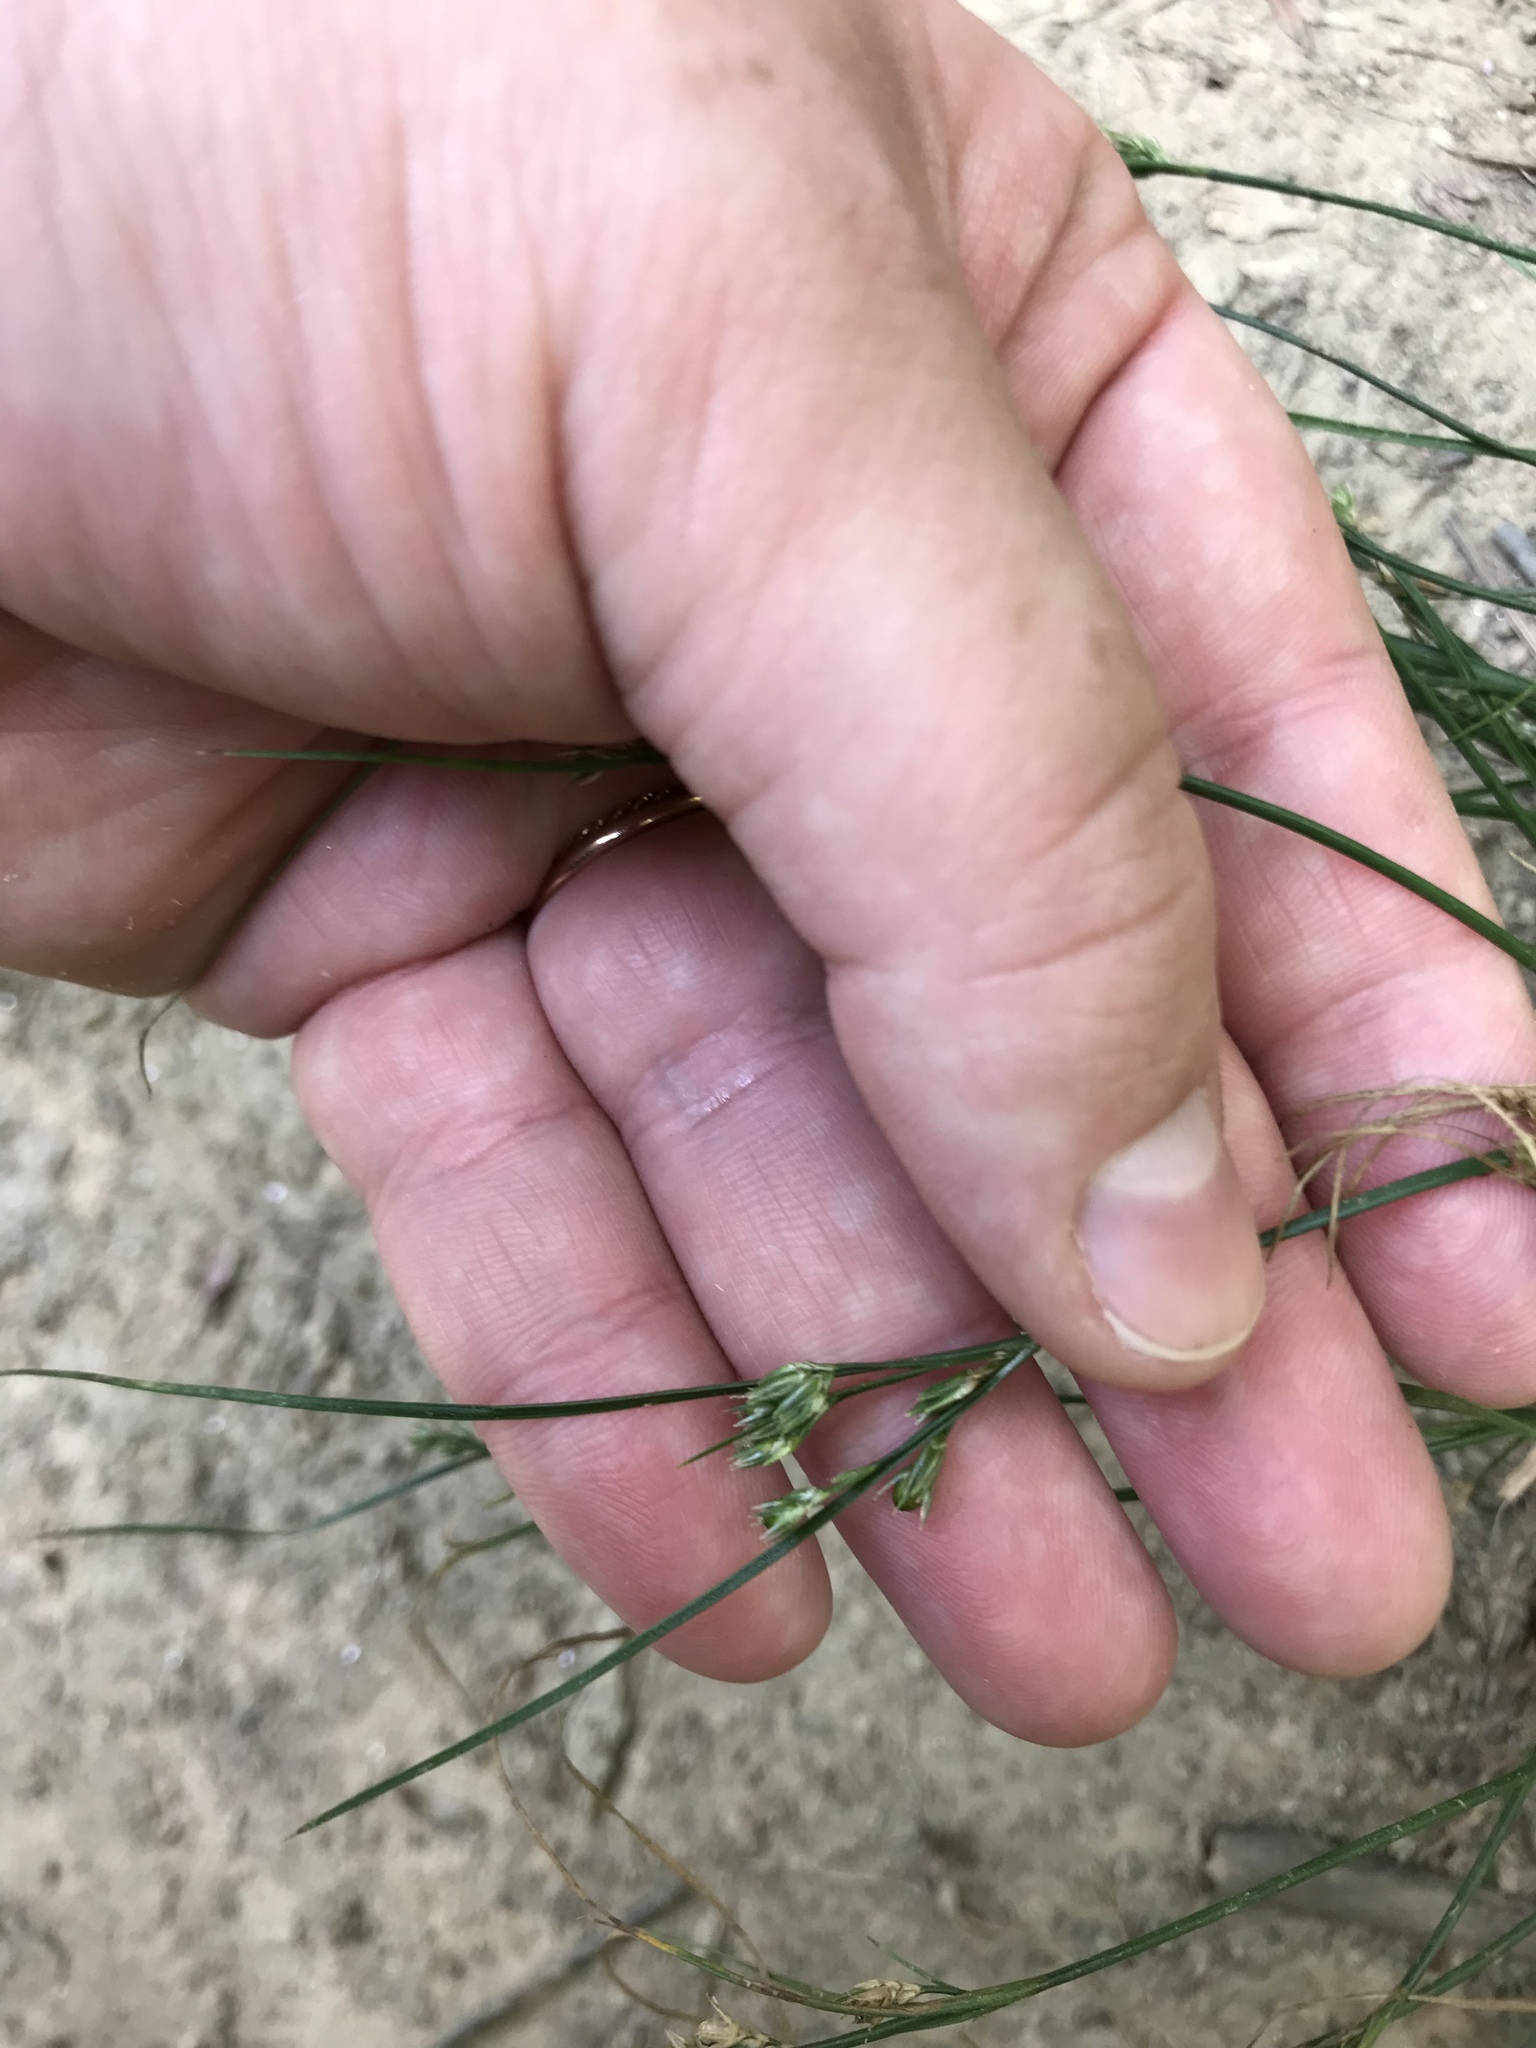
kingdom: Plantae
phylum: Tracheophyta
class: Liliopsida
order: Poales
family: Juncaceae
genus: Juncus
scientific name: Juncus tenuis
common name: Slender rush
